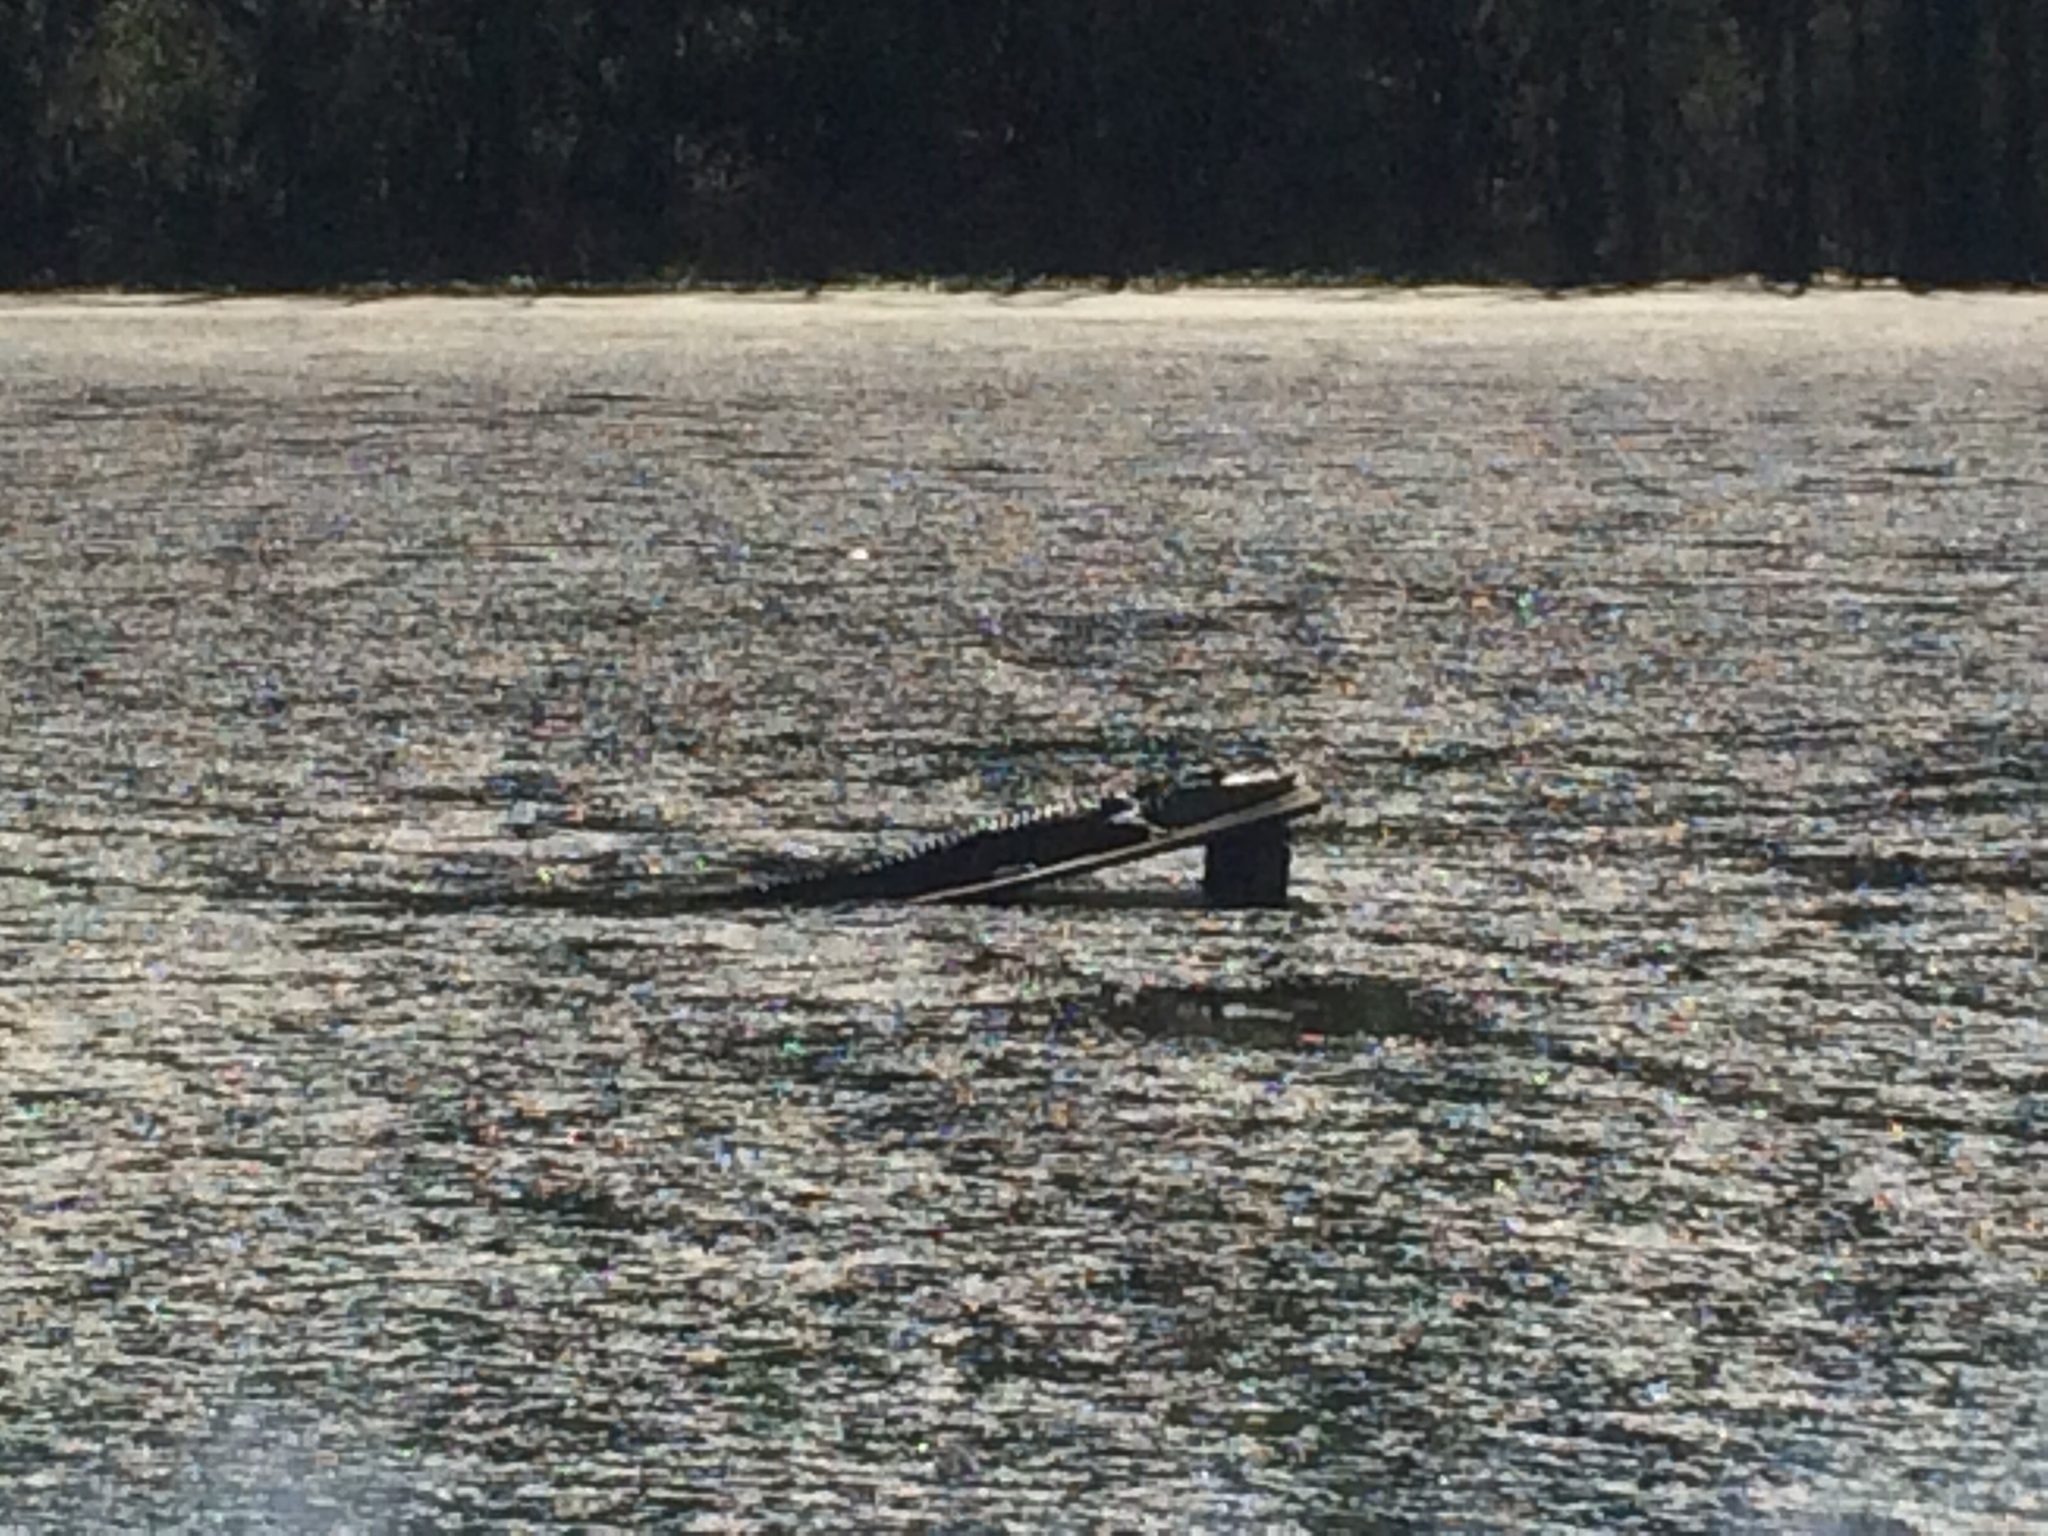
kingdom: Animalia
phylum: Chordata
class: Crocodylia
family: Alligatoridae
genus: Alligator
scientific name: Alligator mississippiensis
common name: American alligator
